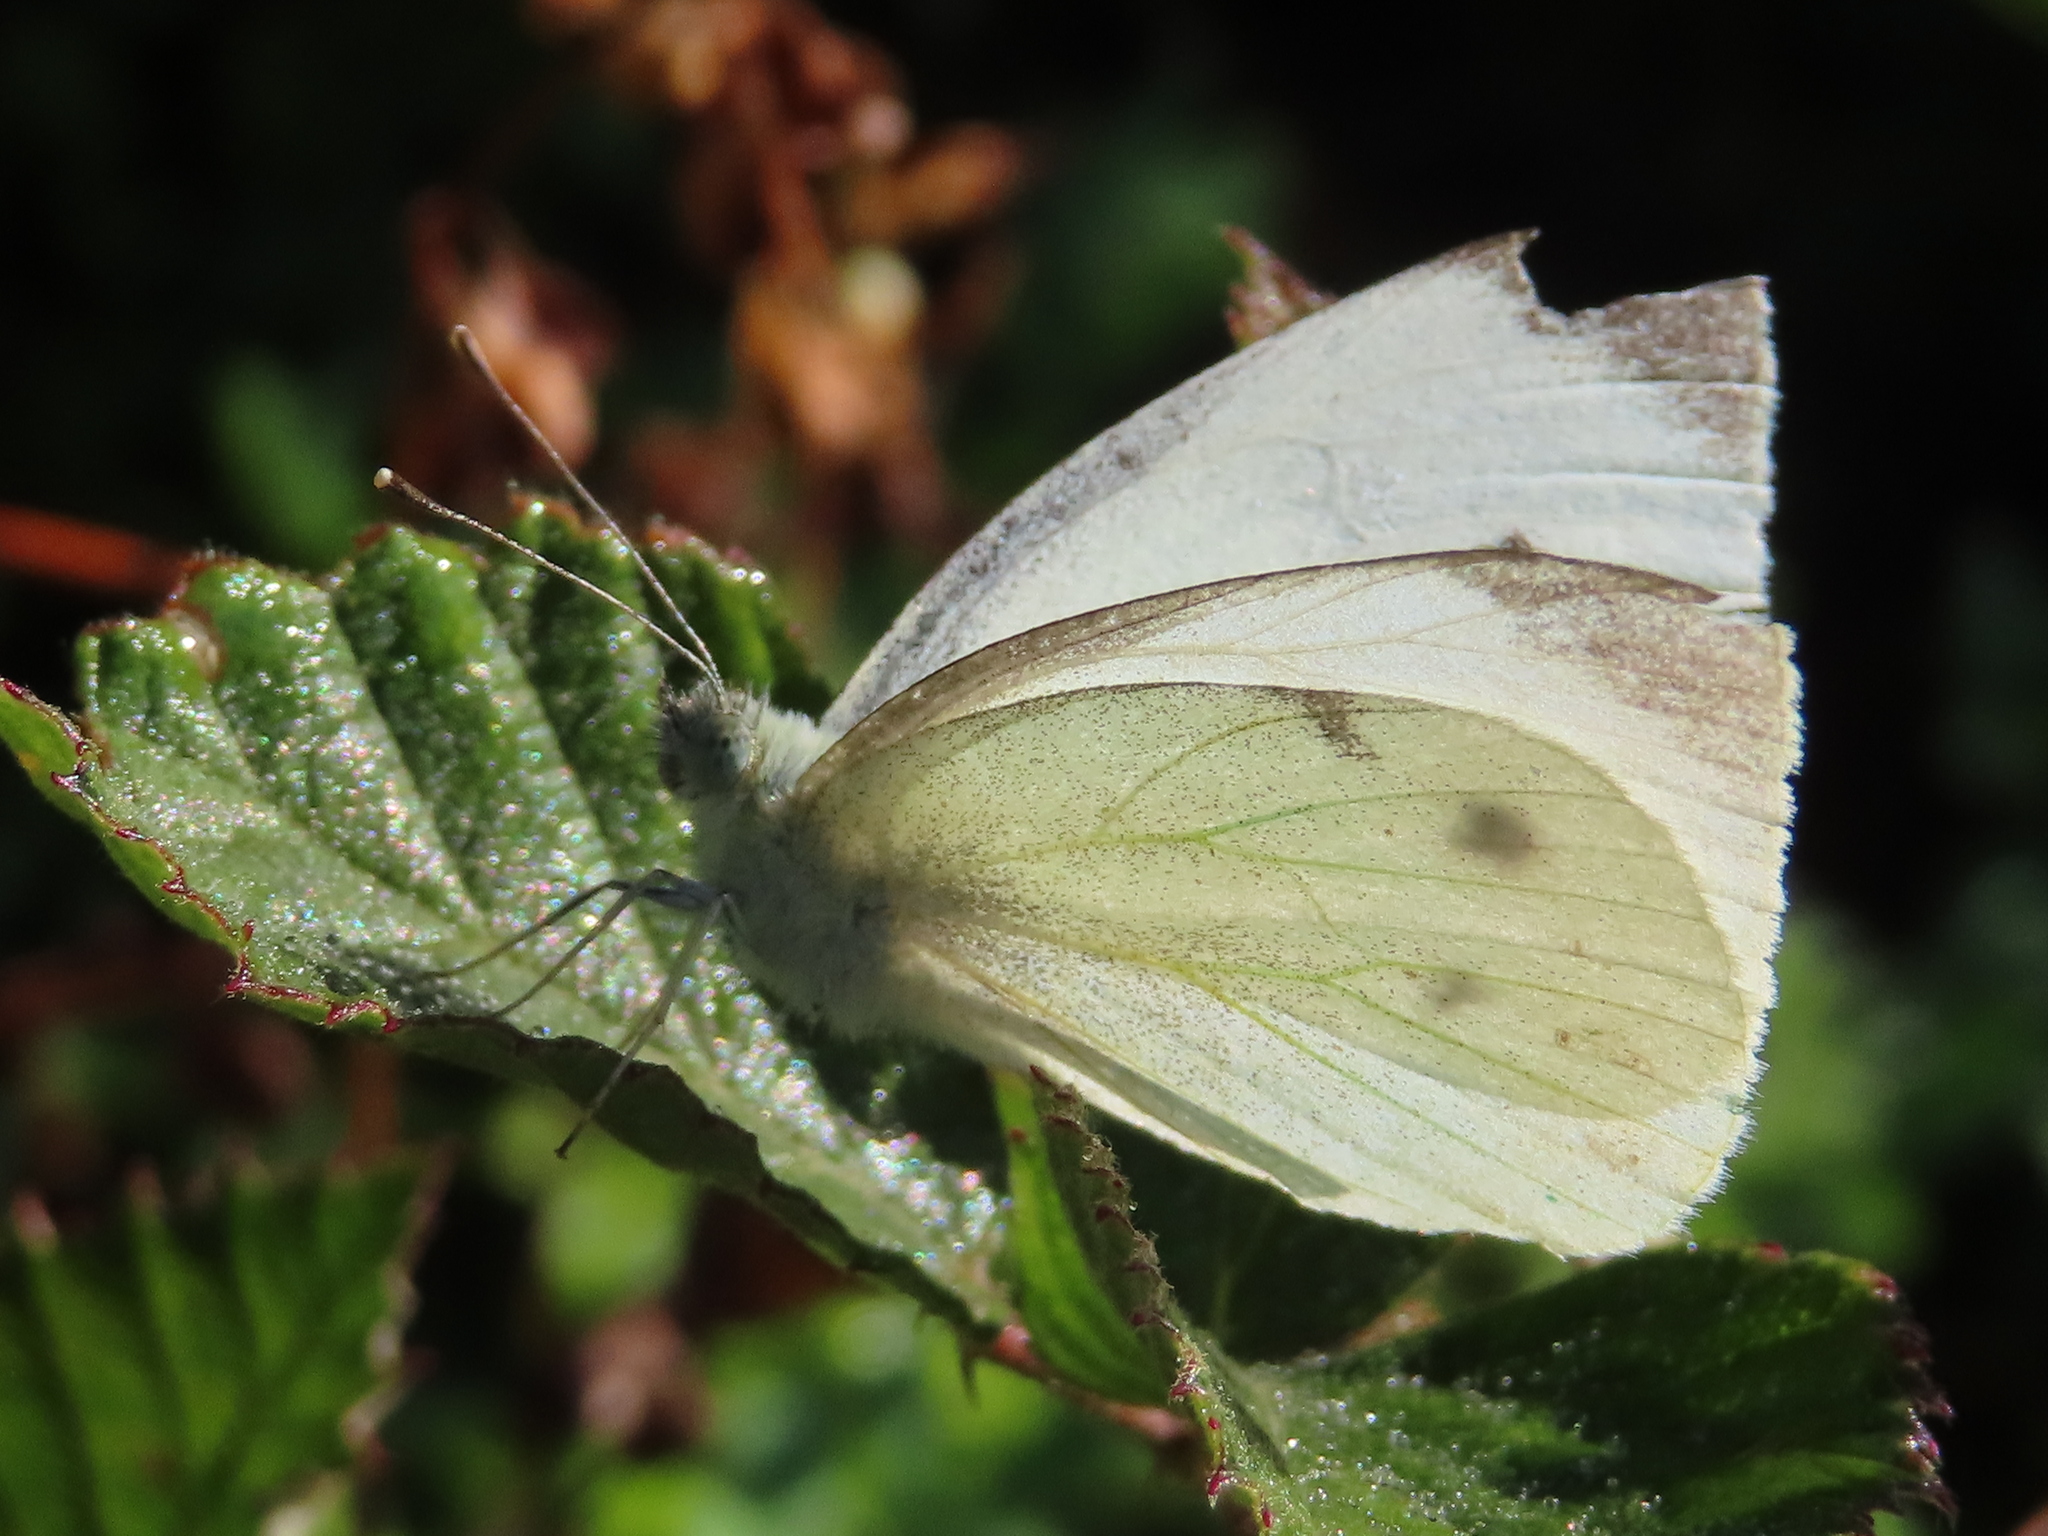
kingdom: Animalia
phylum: Arthropoda
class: Insecta
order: Lepidoptera
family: Pieridae
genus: Pieris
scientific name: Pieris rapae
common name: Small white
